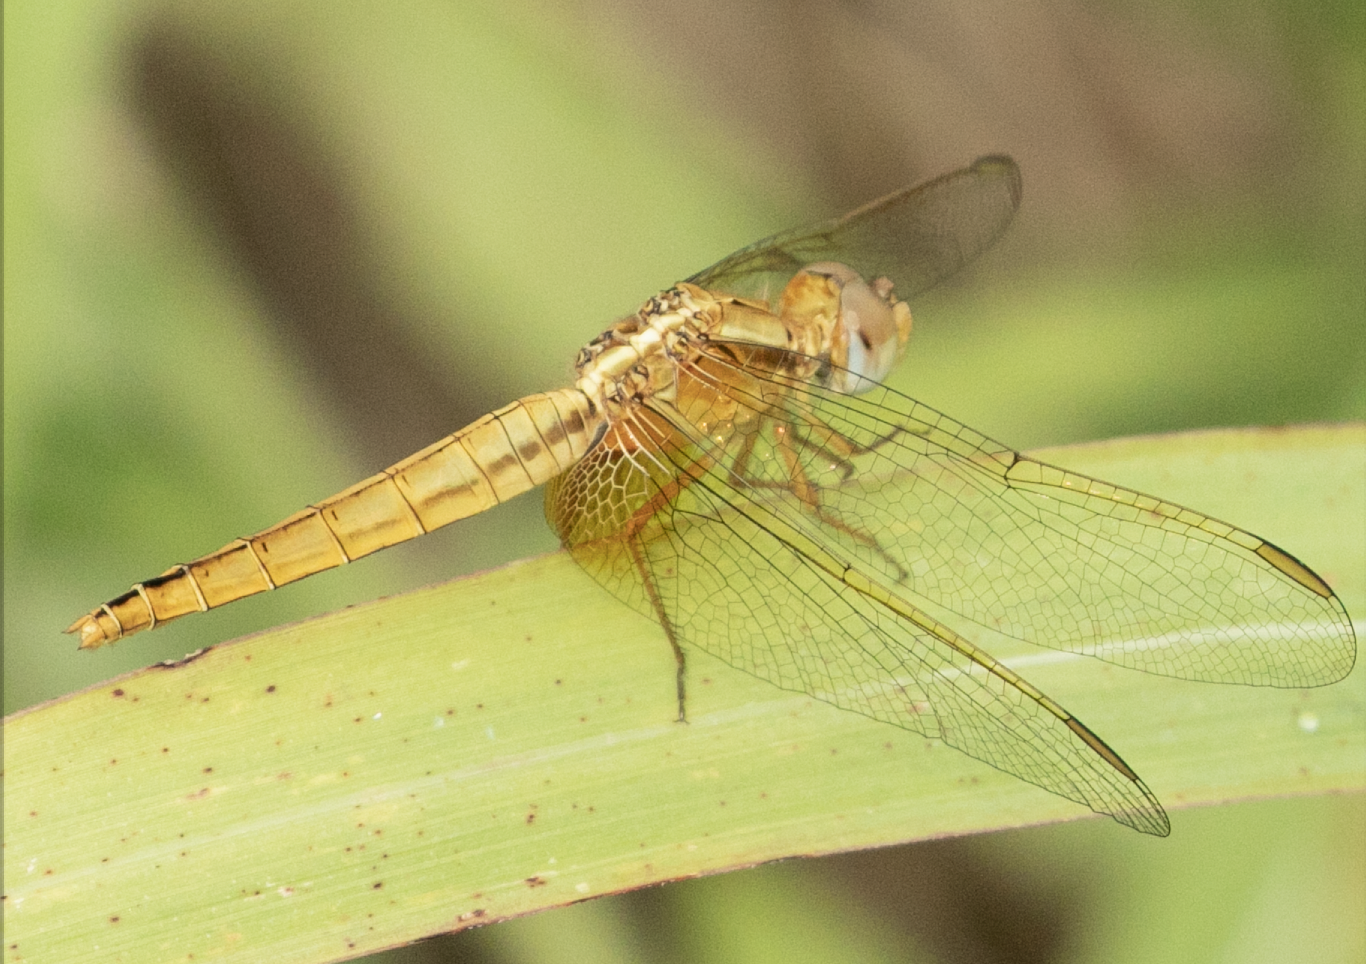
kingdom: Animalia
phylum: Arthropoda
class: Insecta
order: Odonata
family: Libellulidae
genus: Crocothemis
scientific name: Crocothemis erythraea
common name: Scarlet dragonfly
